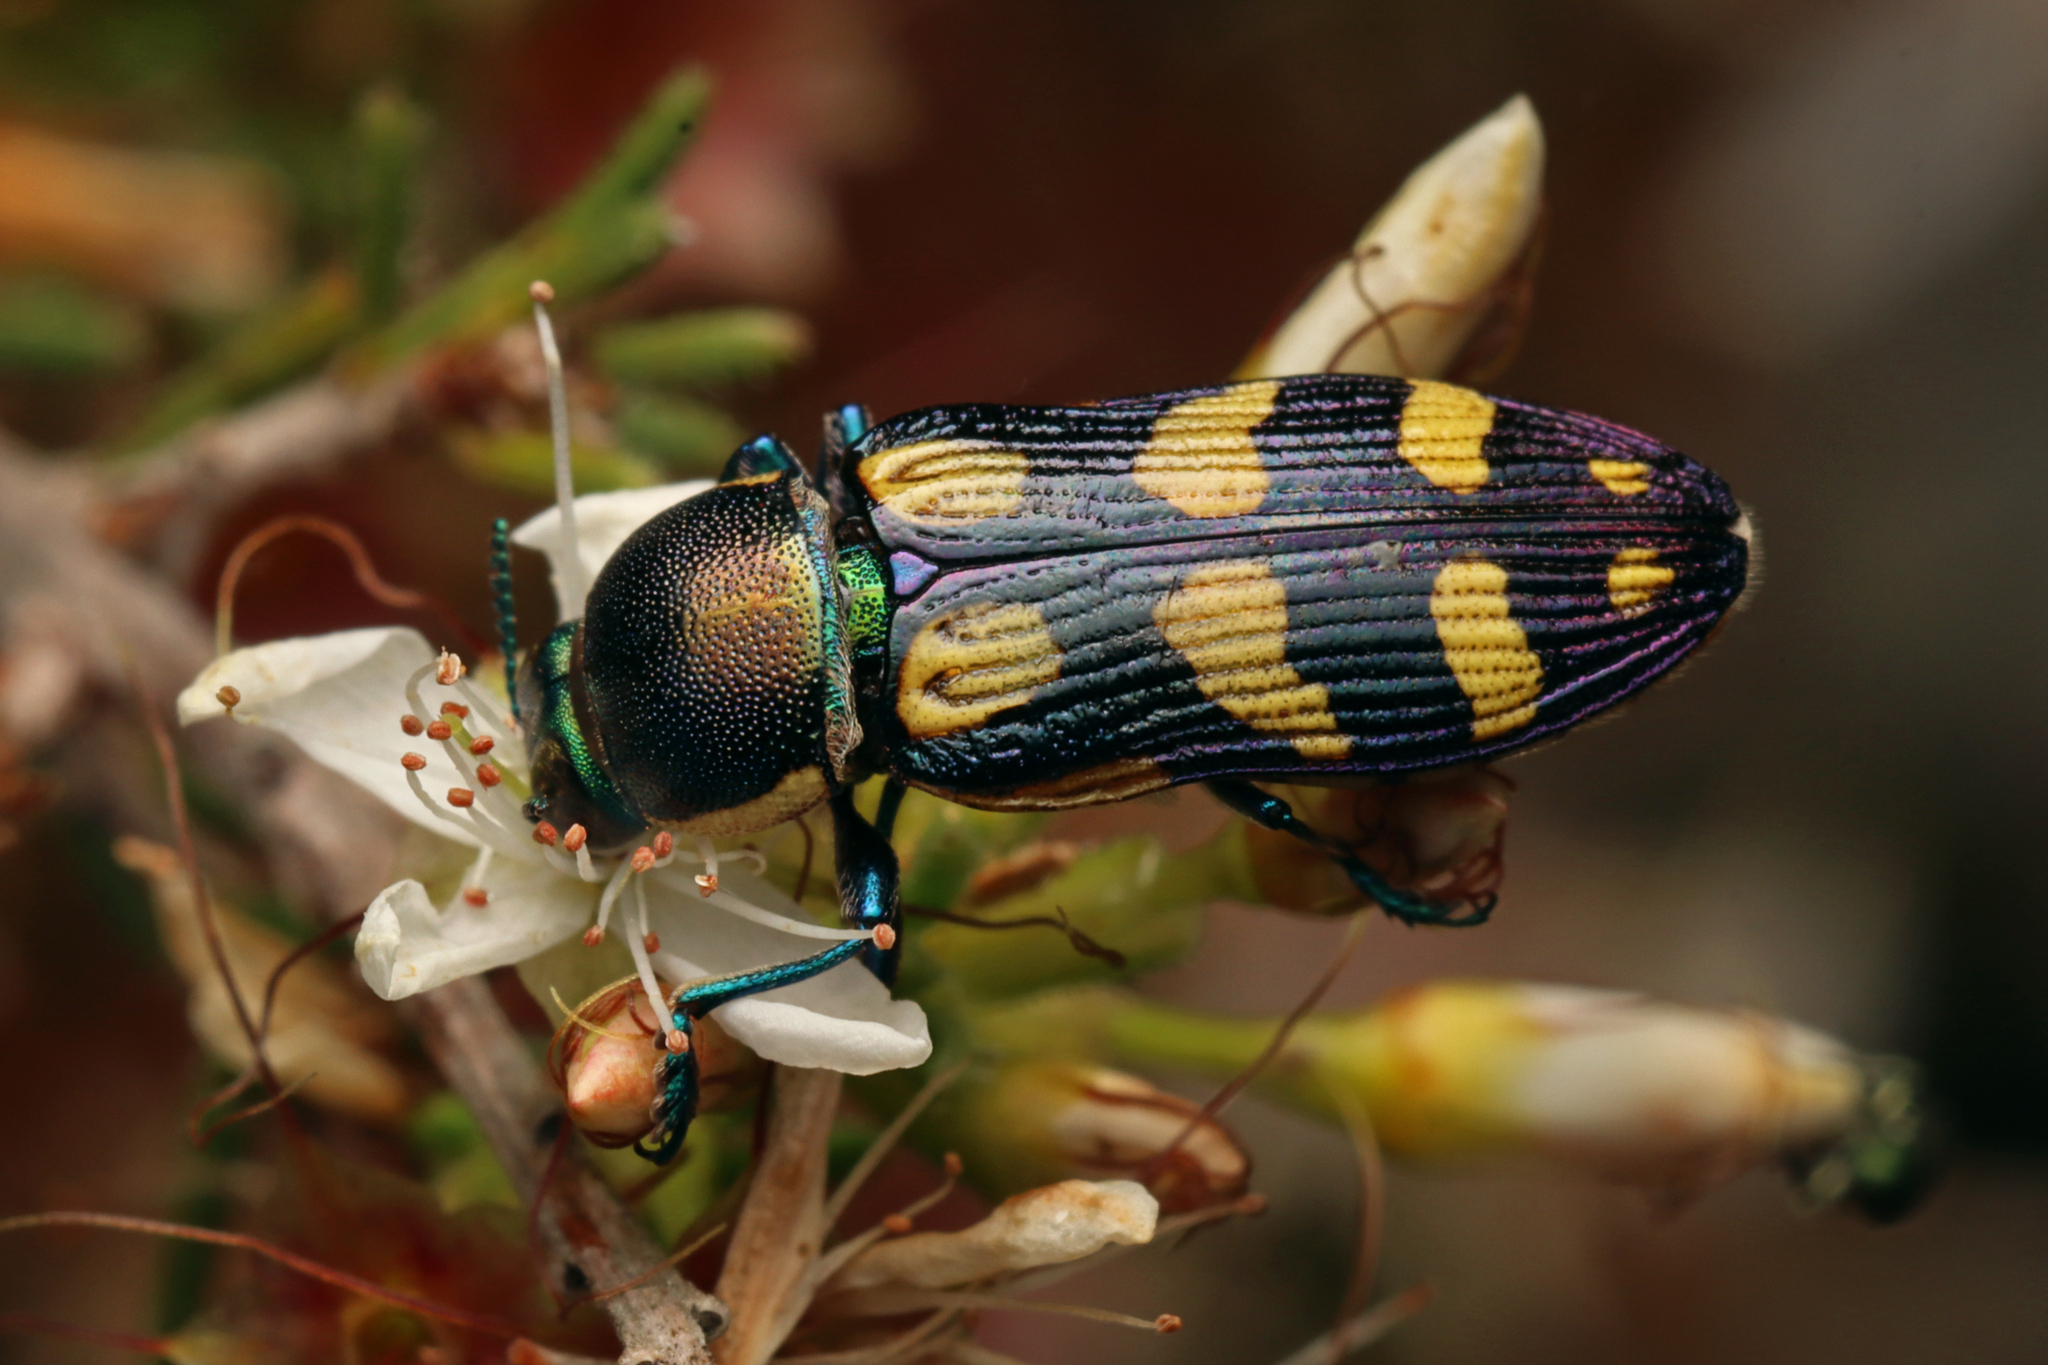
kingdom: Animalia
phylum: Arthropoda
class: Insecta
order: Coleoptera
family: Buprestidae
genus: Castiarina
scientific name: Castiarina adelaidae
